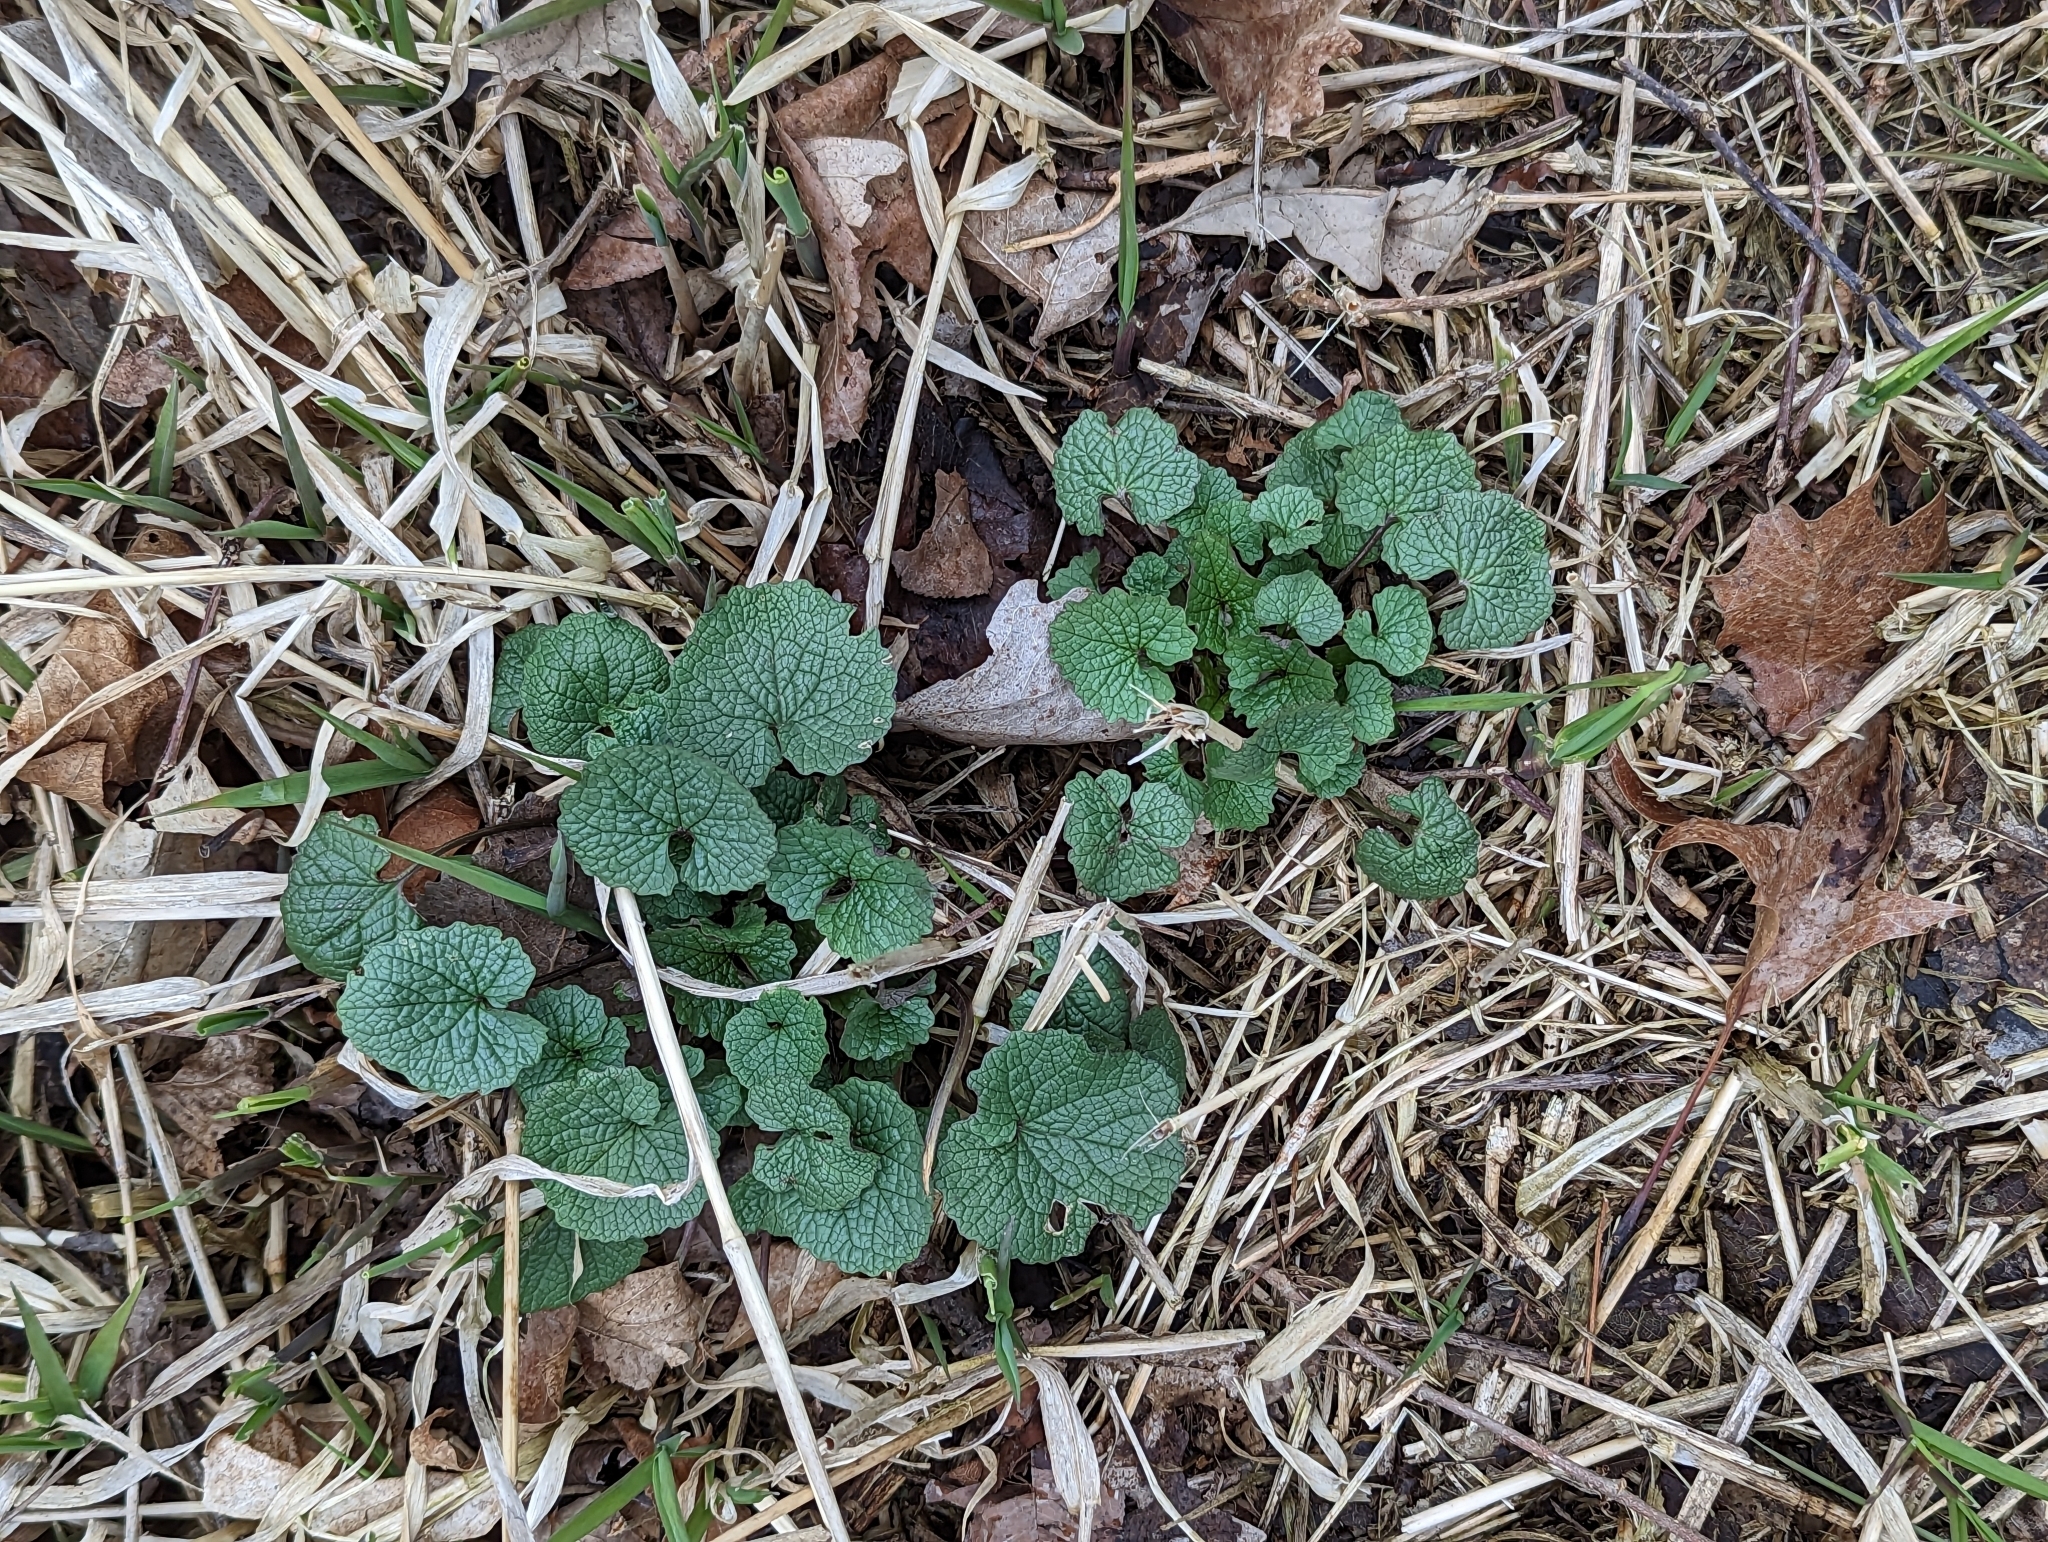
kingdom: Plantae
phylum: Tracheophyta
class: Magnoliopsida
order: Brassicales
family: Brassicaceae
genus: Alliaria
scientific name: Alliaria petiolata
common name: Garlic mustard
